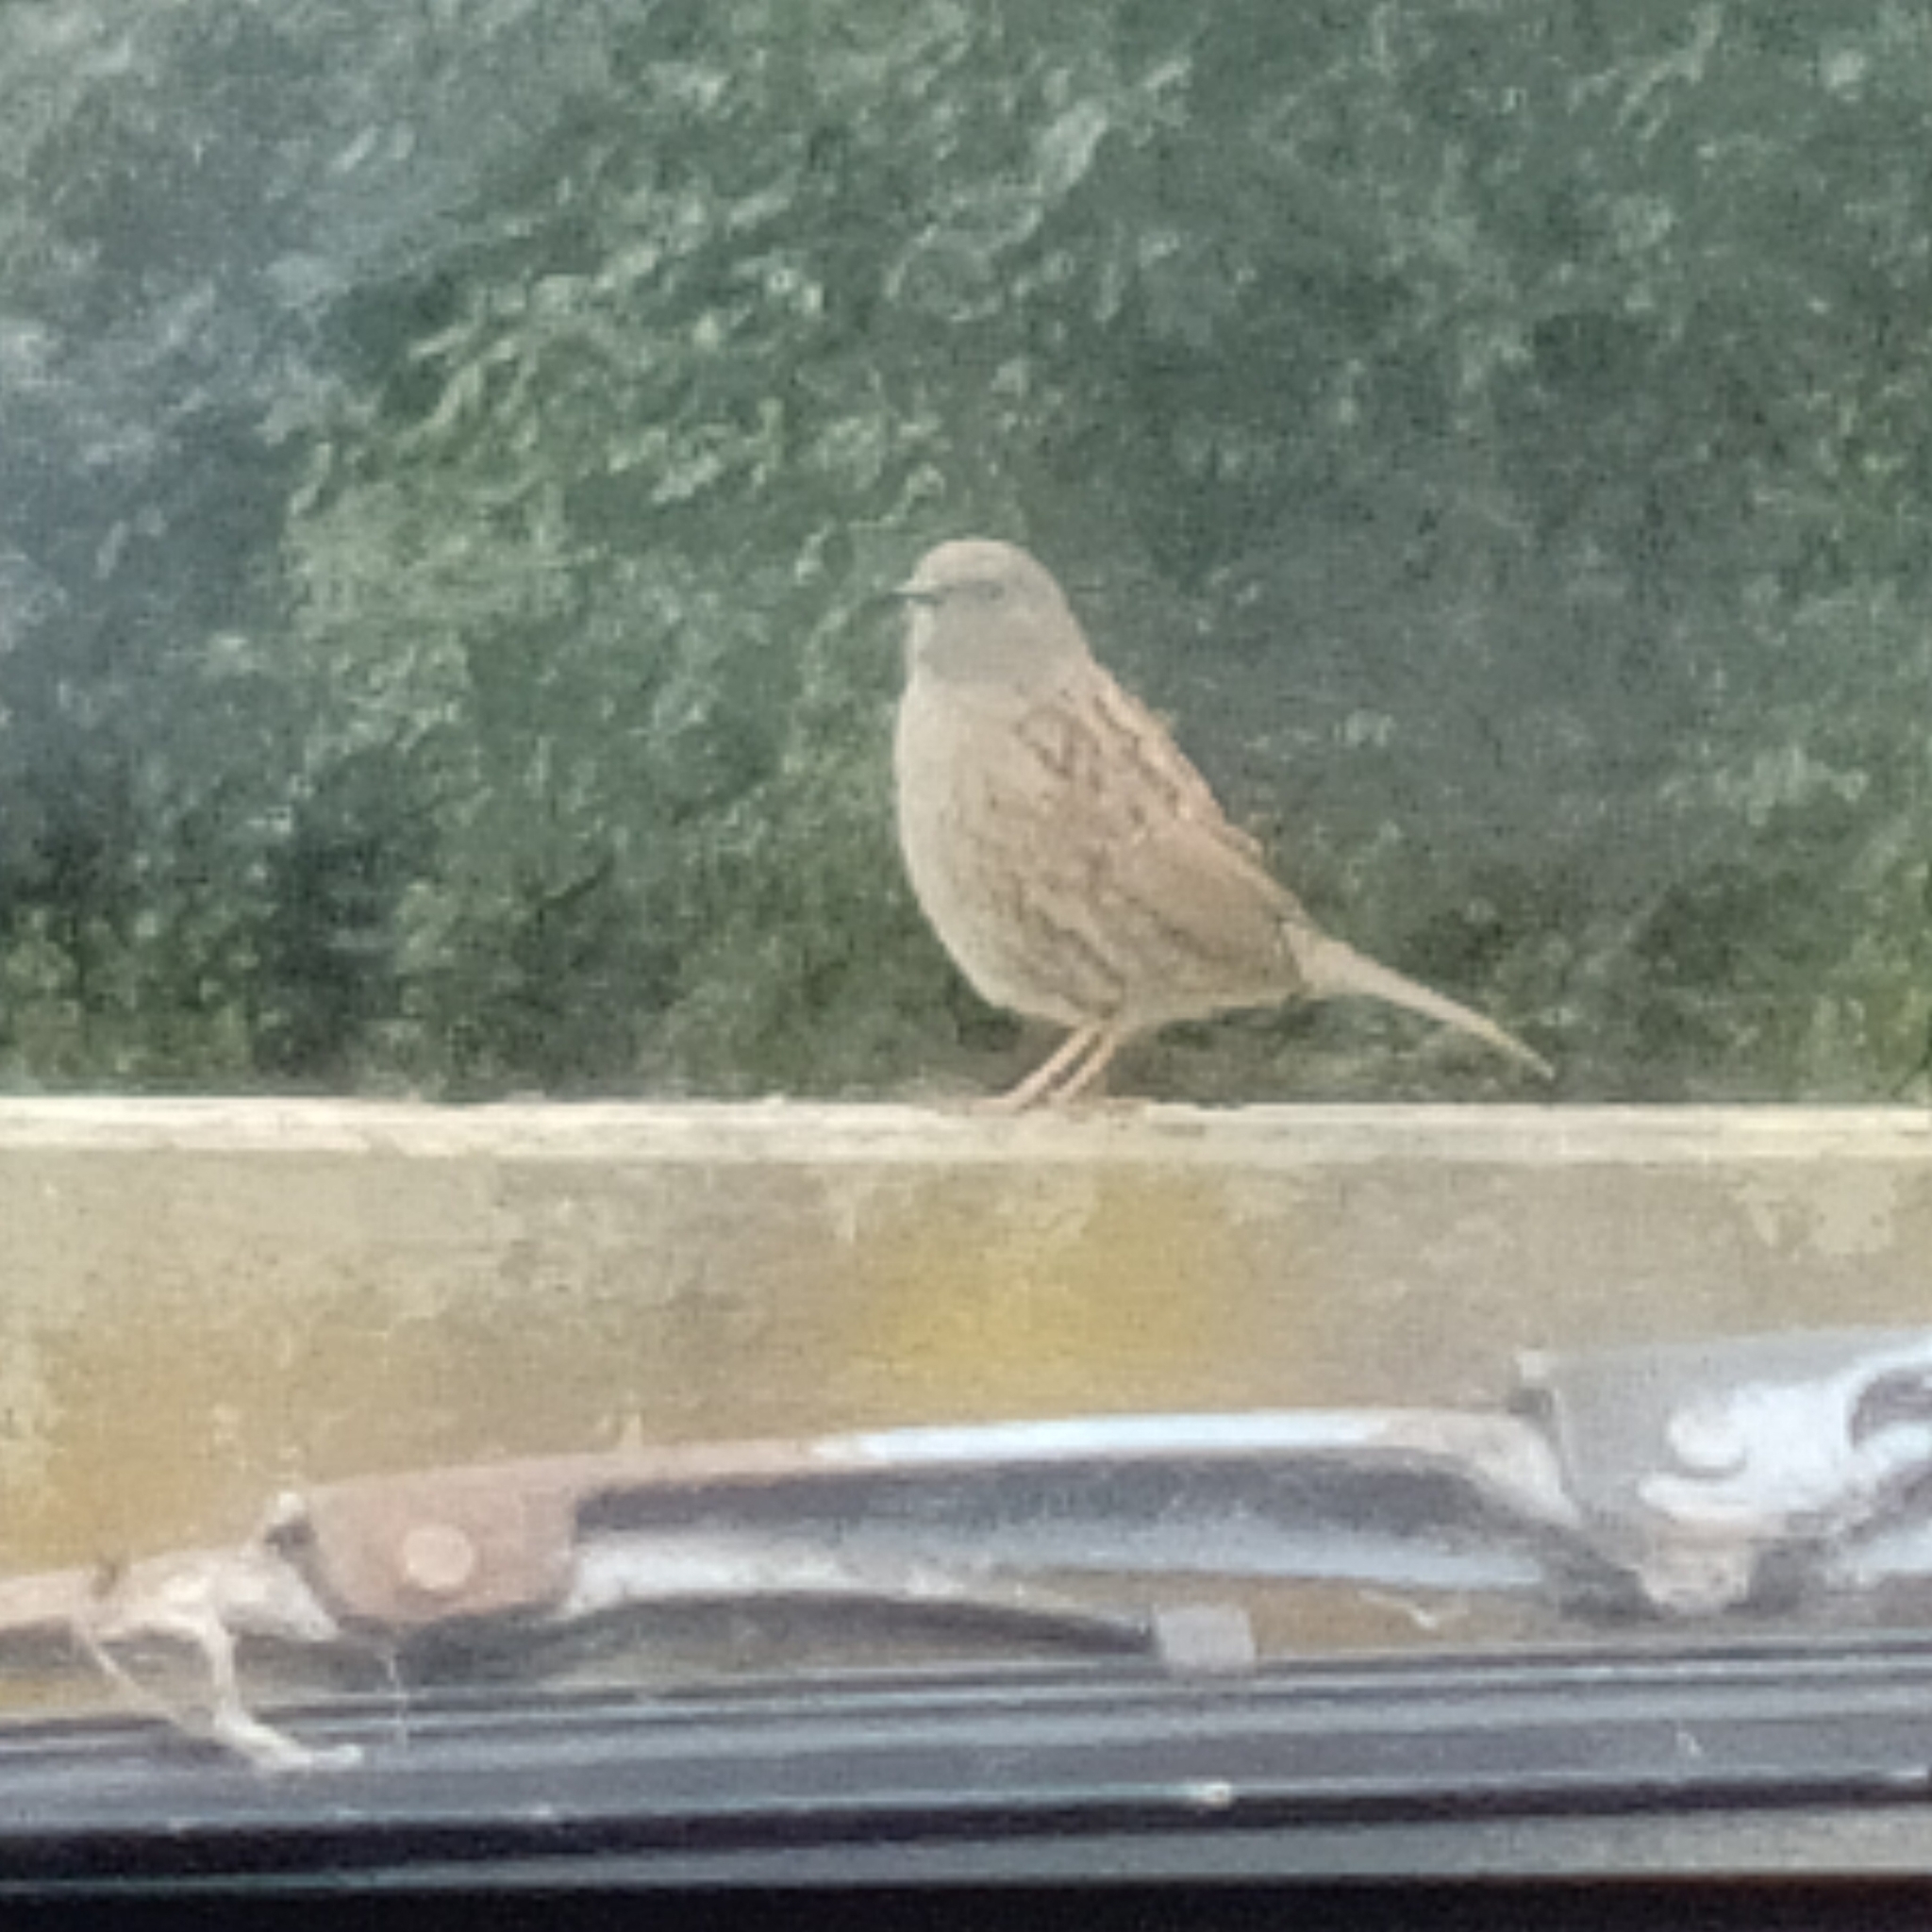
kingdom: Animalia
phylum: Chordata
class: Aves
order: Passeriformes
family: Prunellidae
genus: Prunella
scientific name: Prunella modularis
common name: Dunnock
